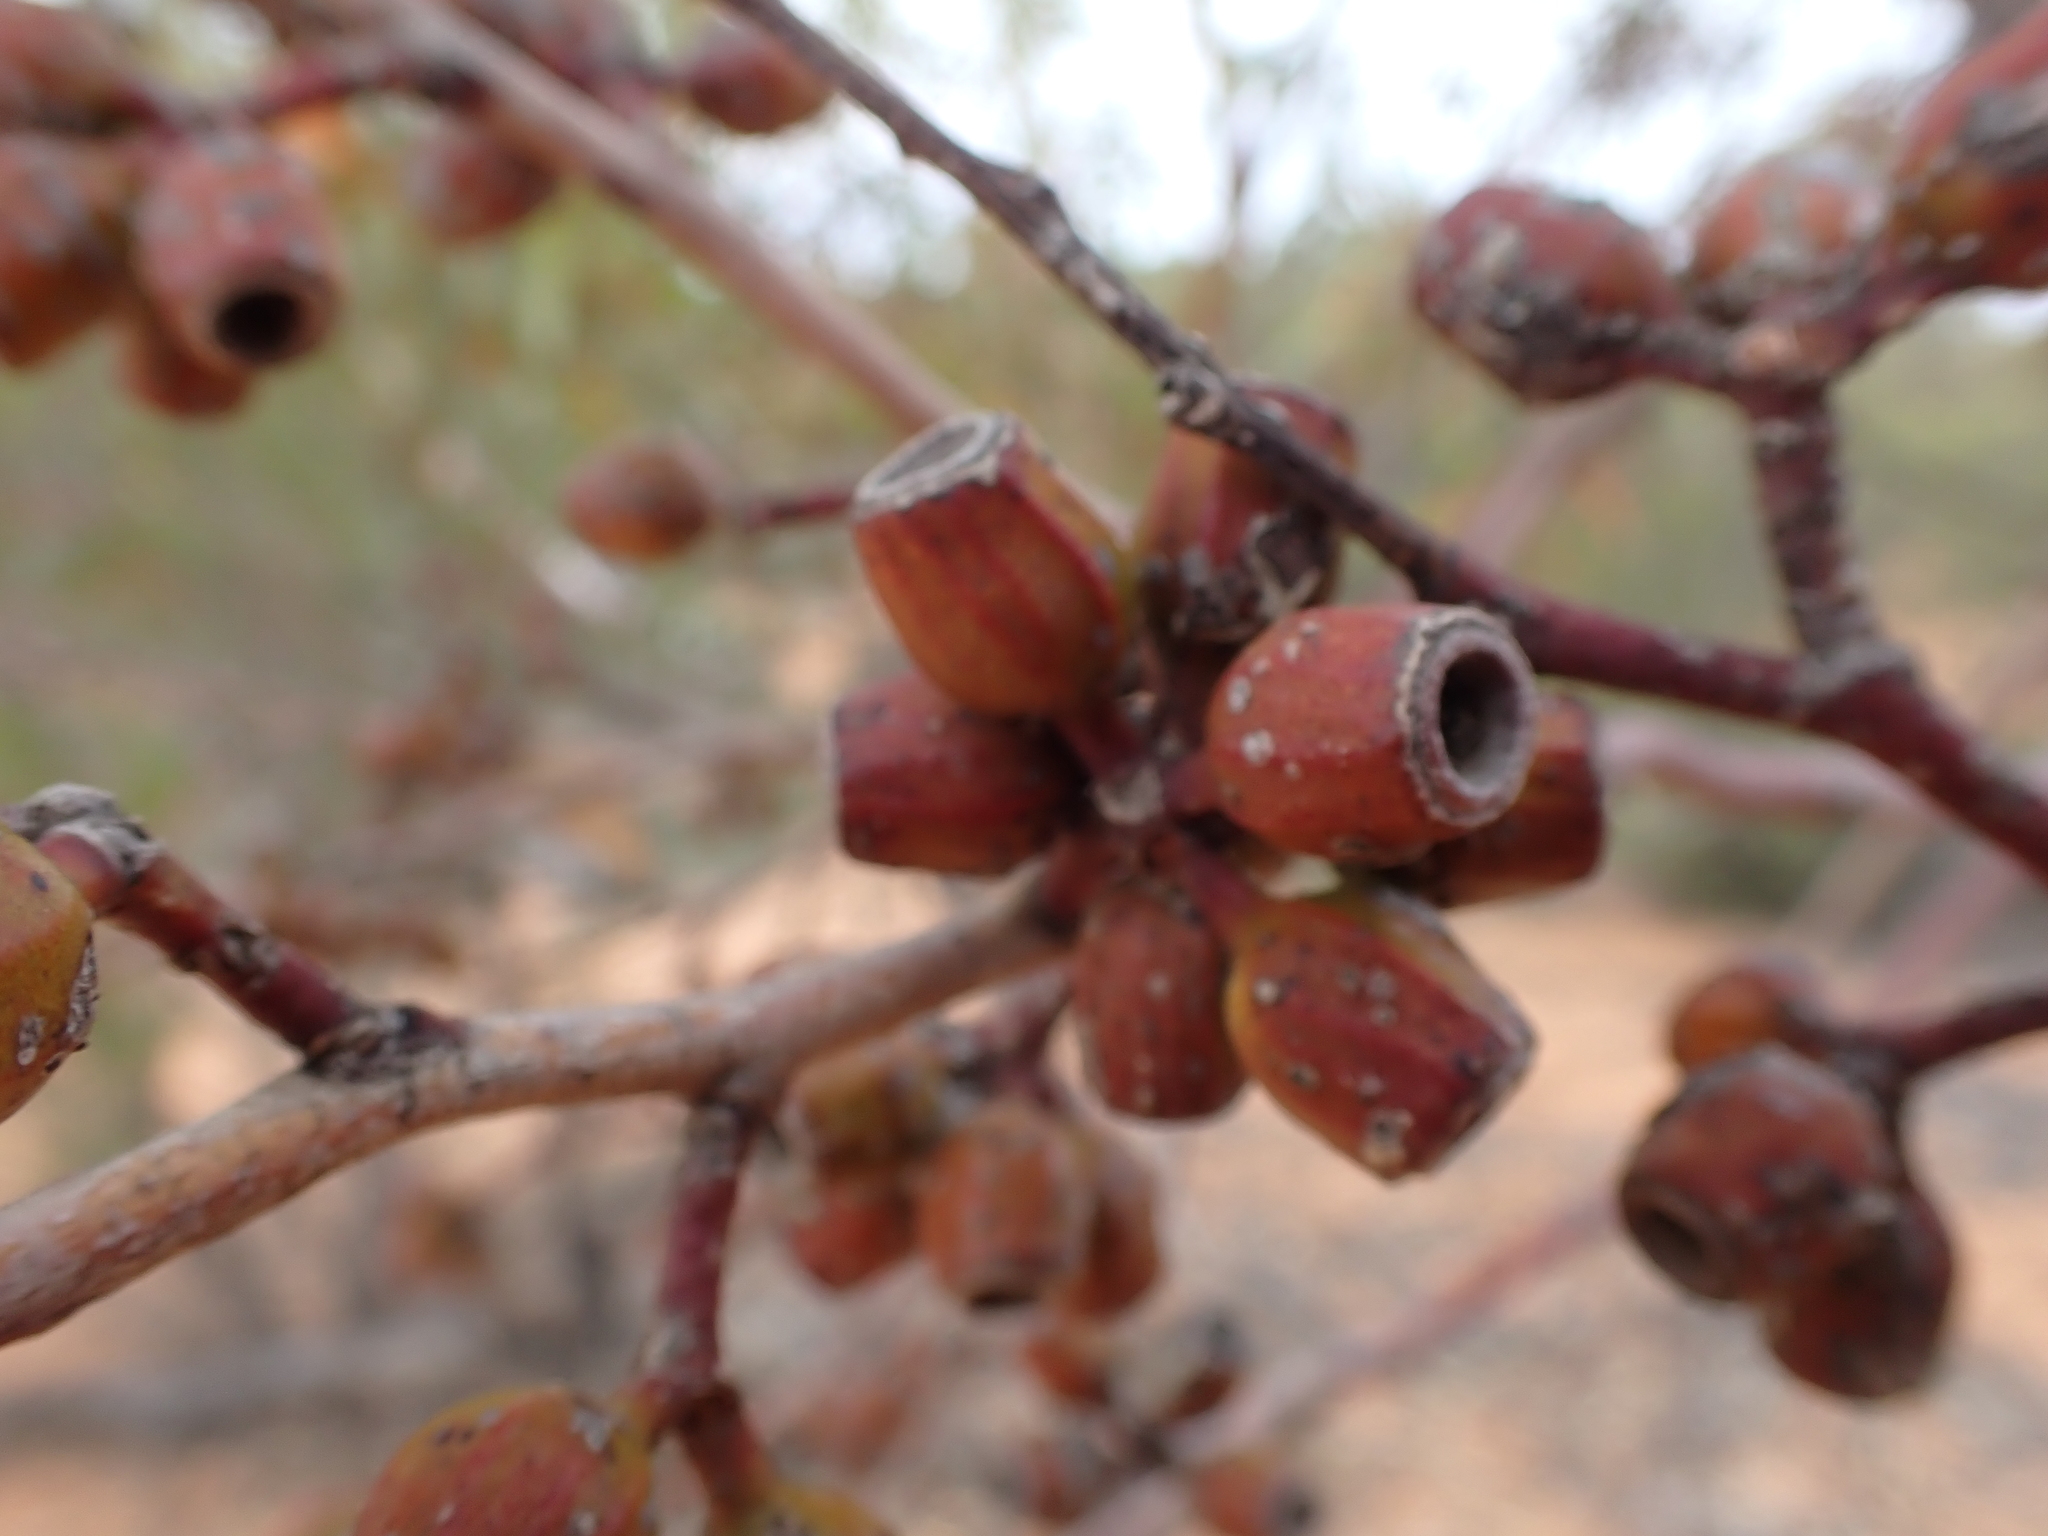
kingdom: Plantae
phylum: Tracheophyta
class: Magnoliopsida
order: Myrtales
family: Myrtaceae
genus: Eucalyptus
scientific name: Eucalyptus incrassata
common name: Ridge-fruit mallee
